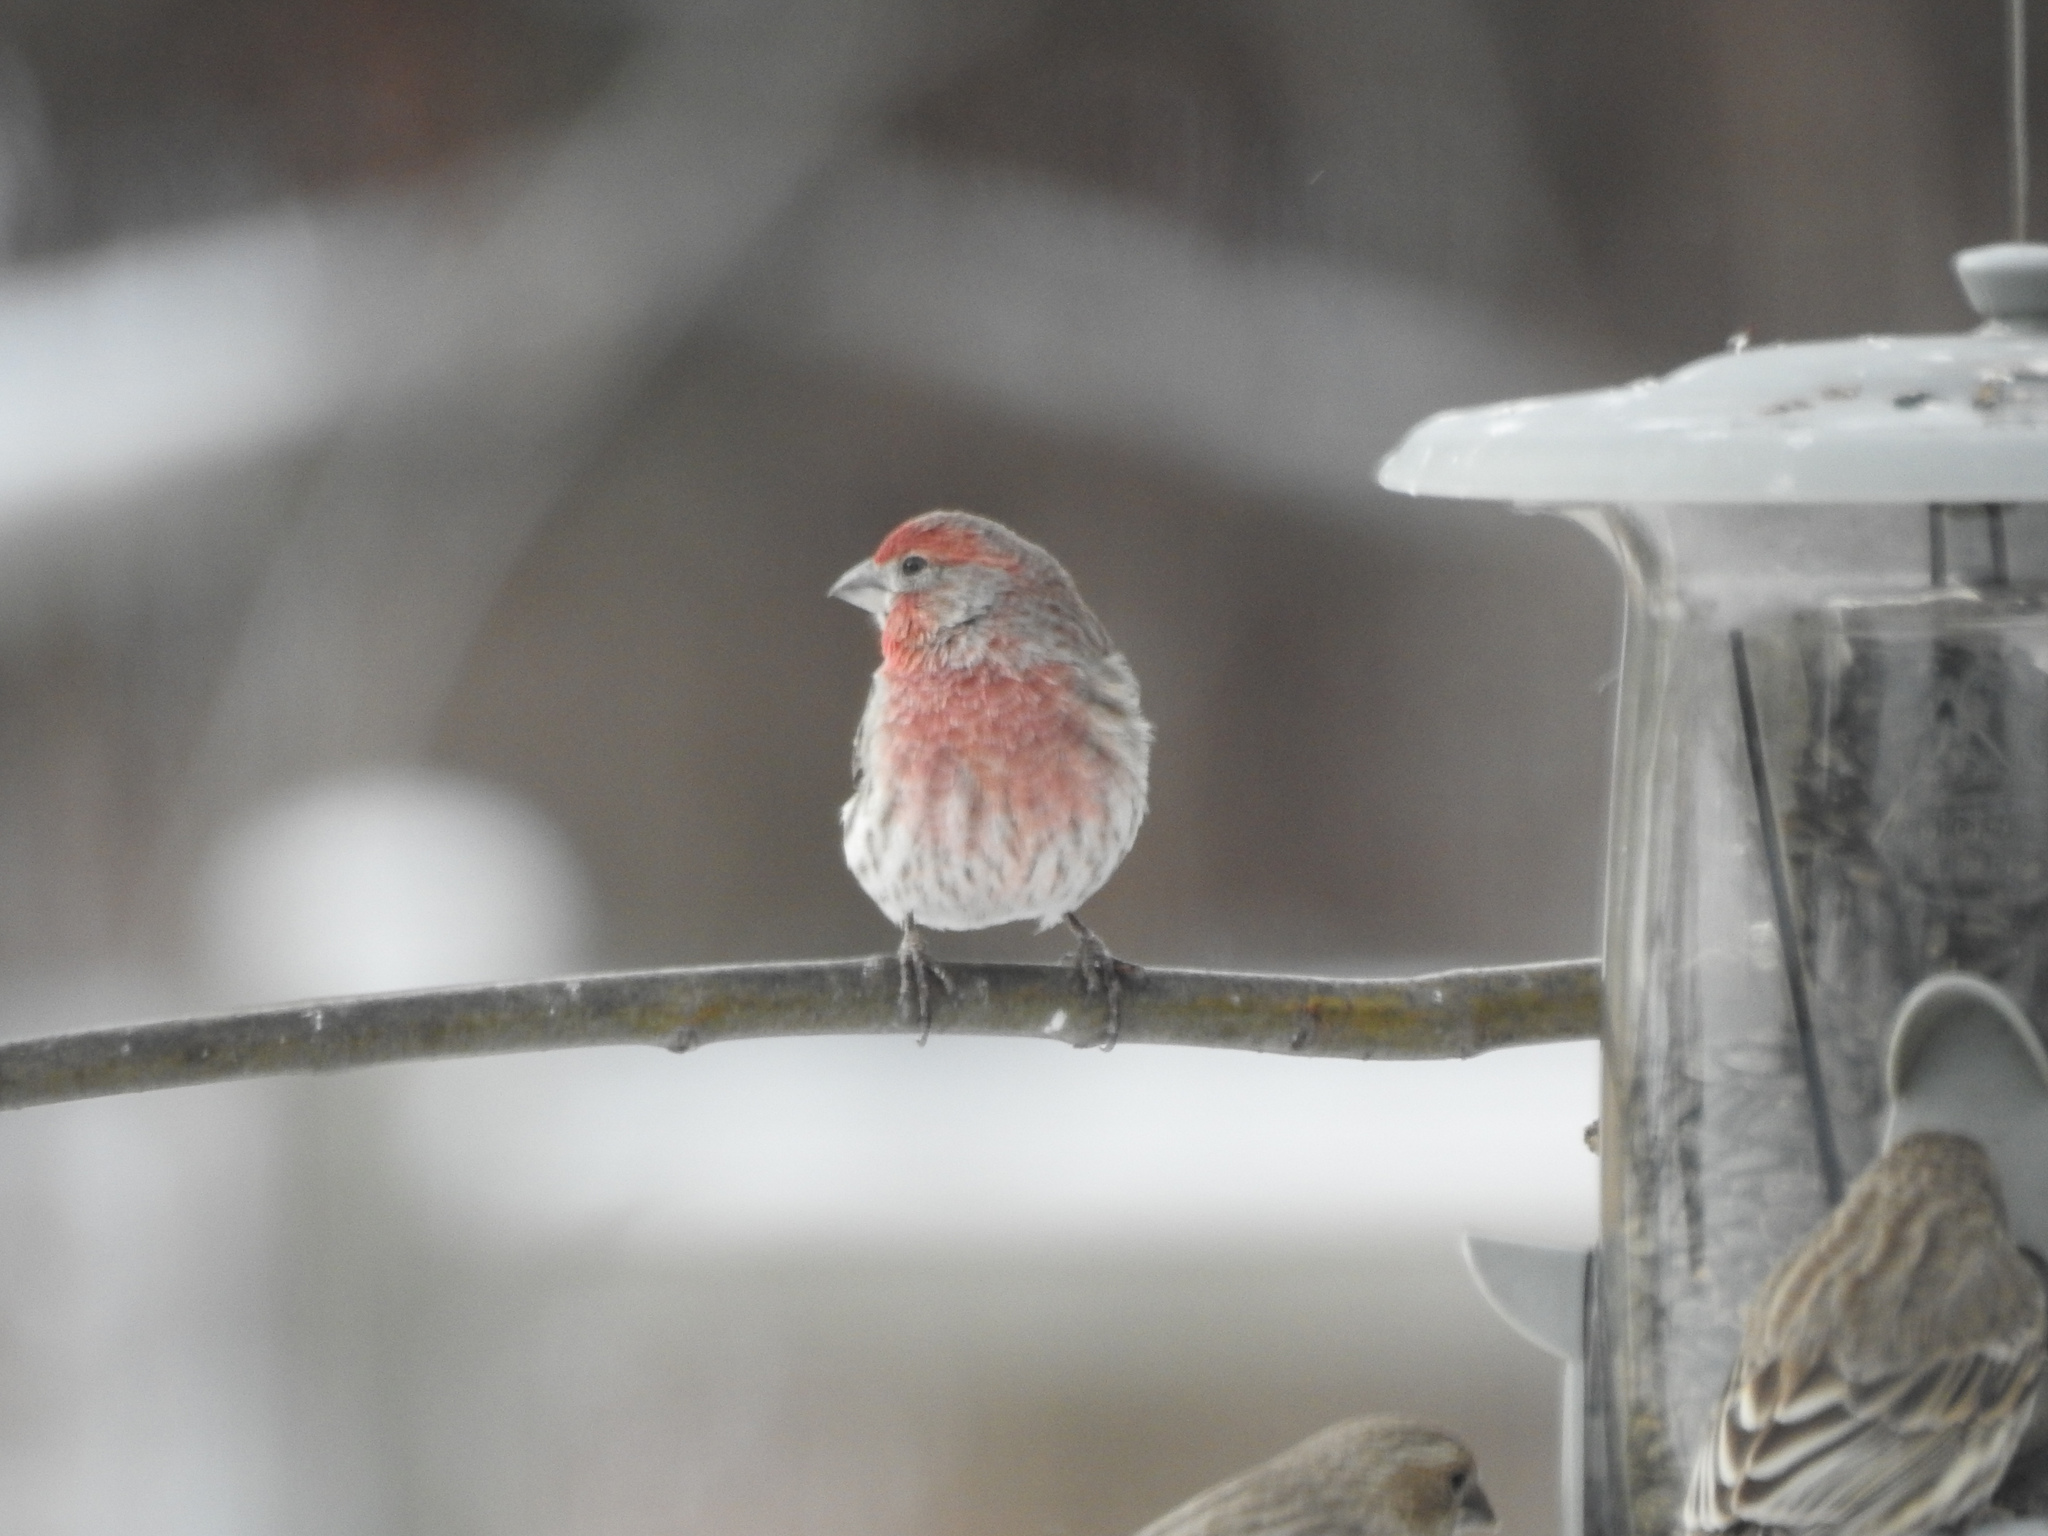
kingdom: Animalia
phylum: Chordata
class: Aves
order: Passeriformes
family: Fringillidae
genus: Haemorhous
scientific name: Haemorhous mexicanus
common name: House finch
